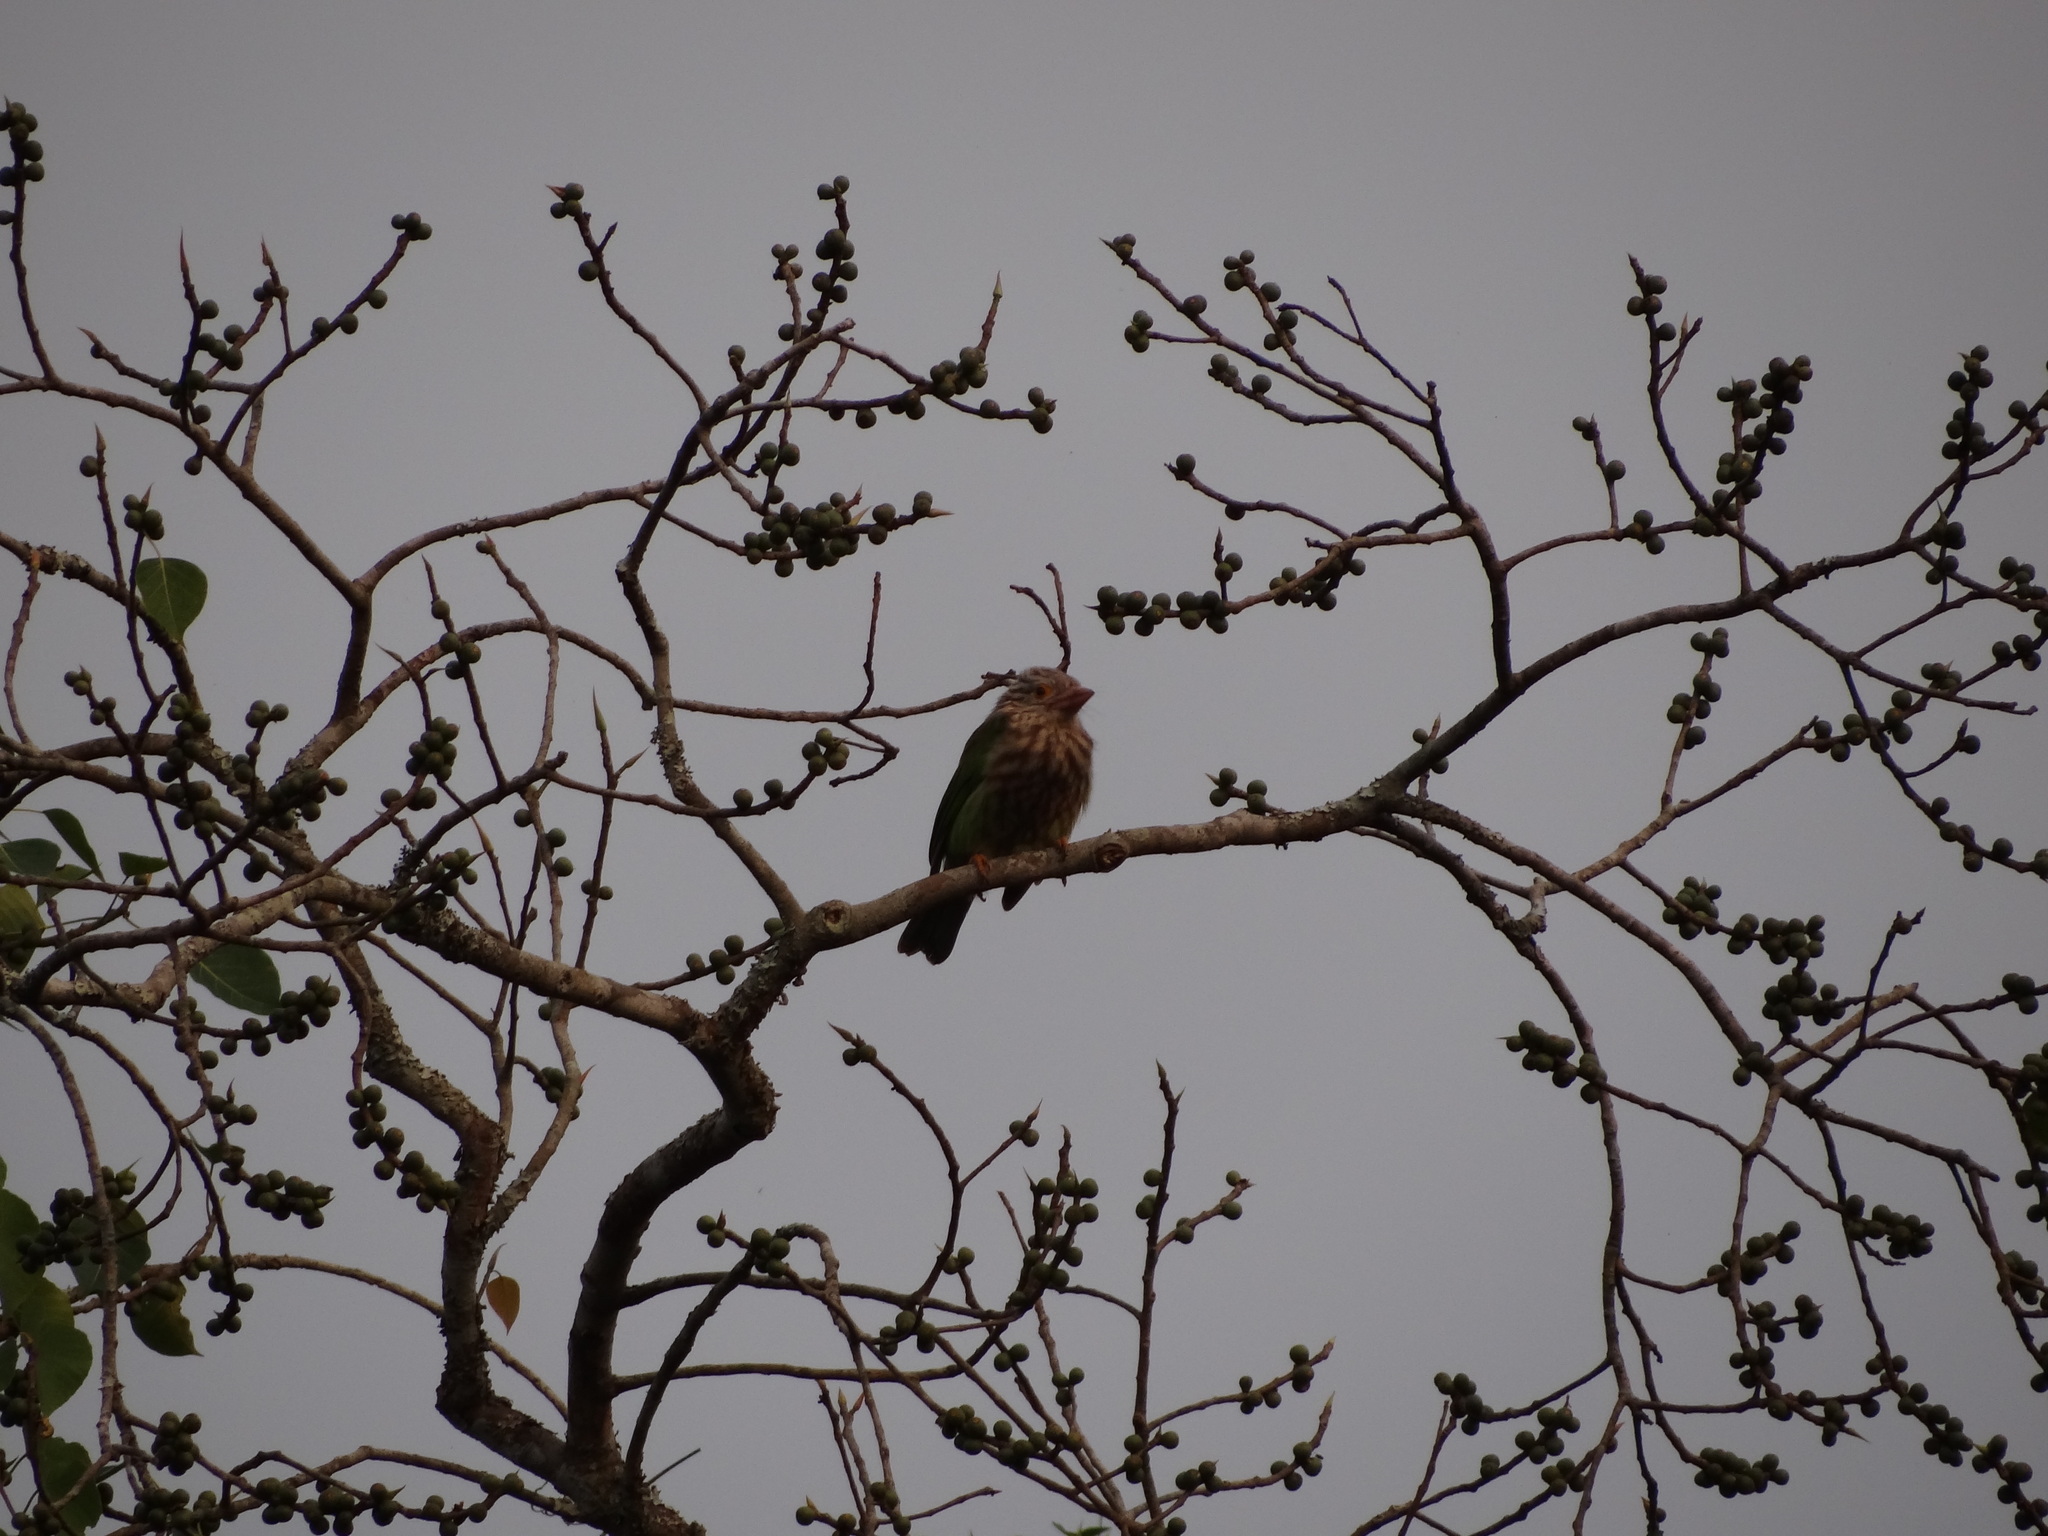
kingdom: Animalia
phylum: Chordata
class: Aves
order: Piciformes
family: Megalaimidae
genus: Psilopogon
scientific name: Psilopogon lineatus
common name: Lineated barbet
